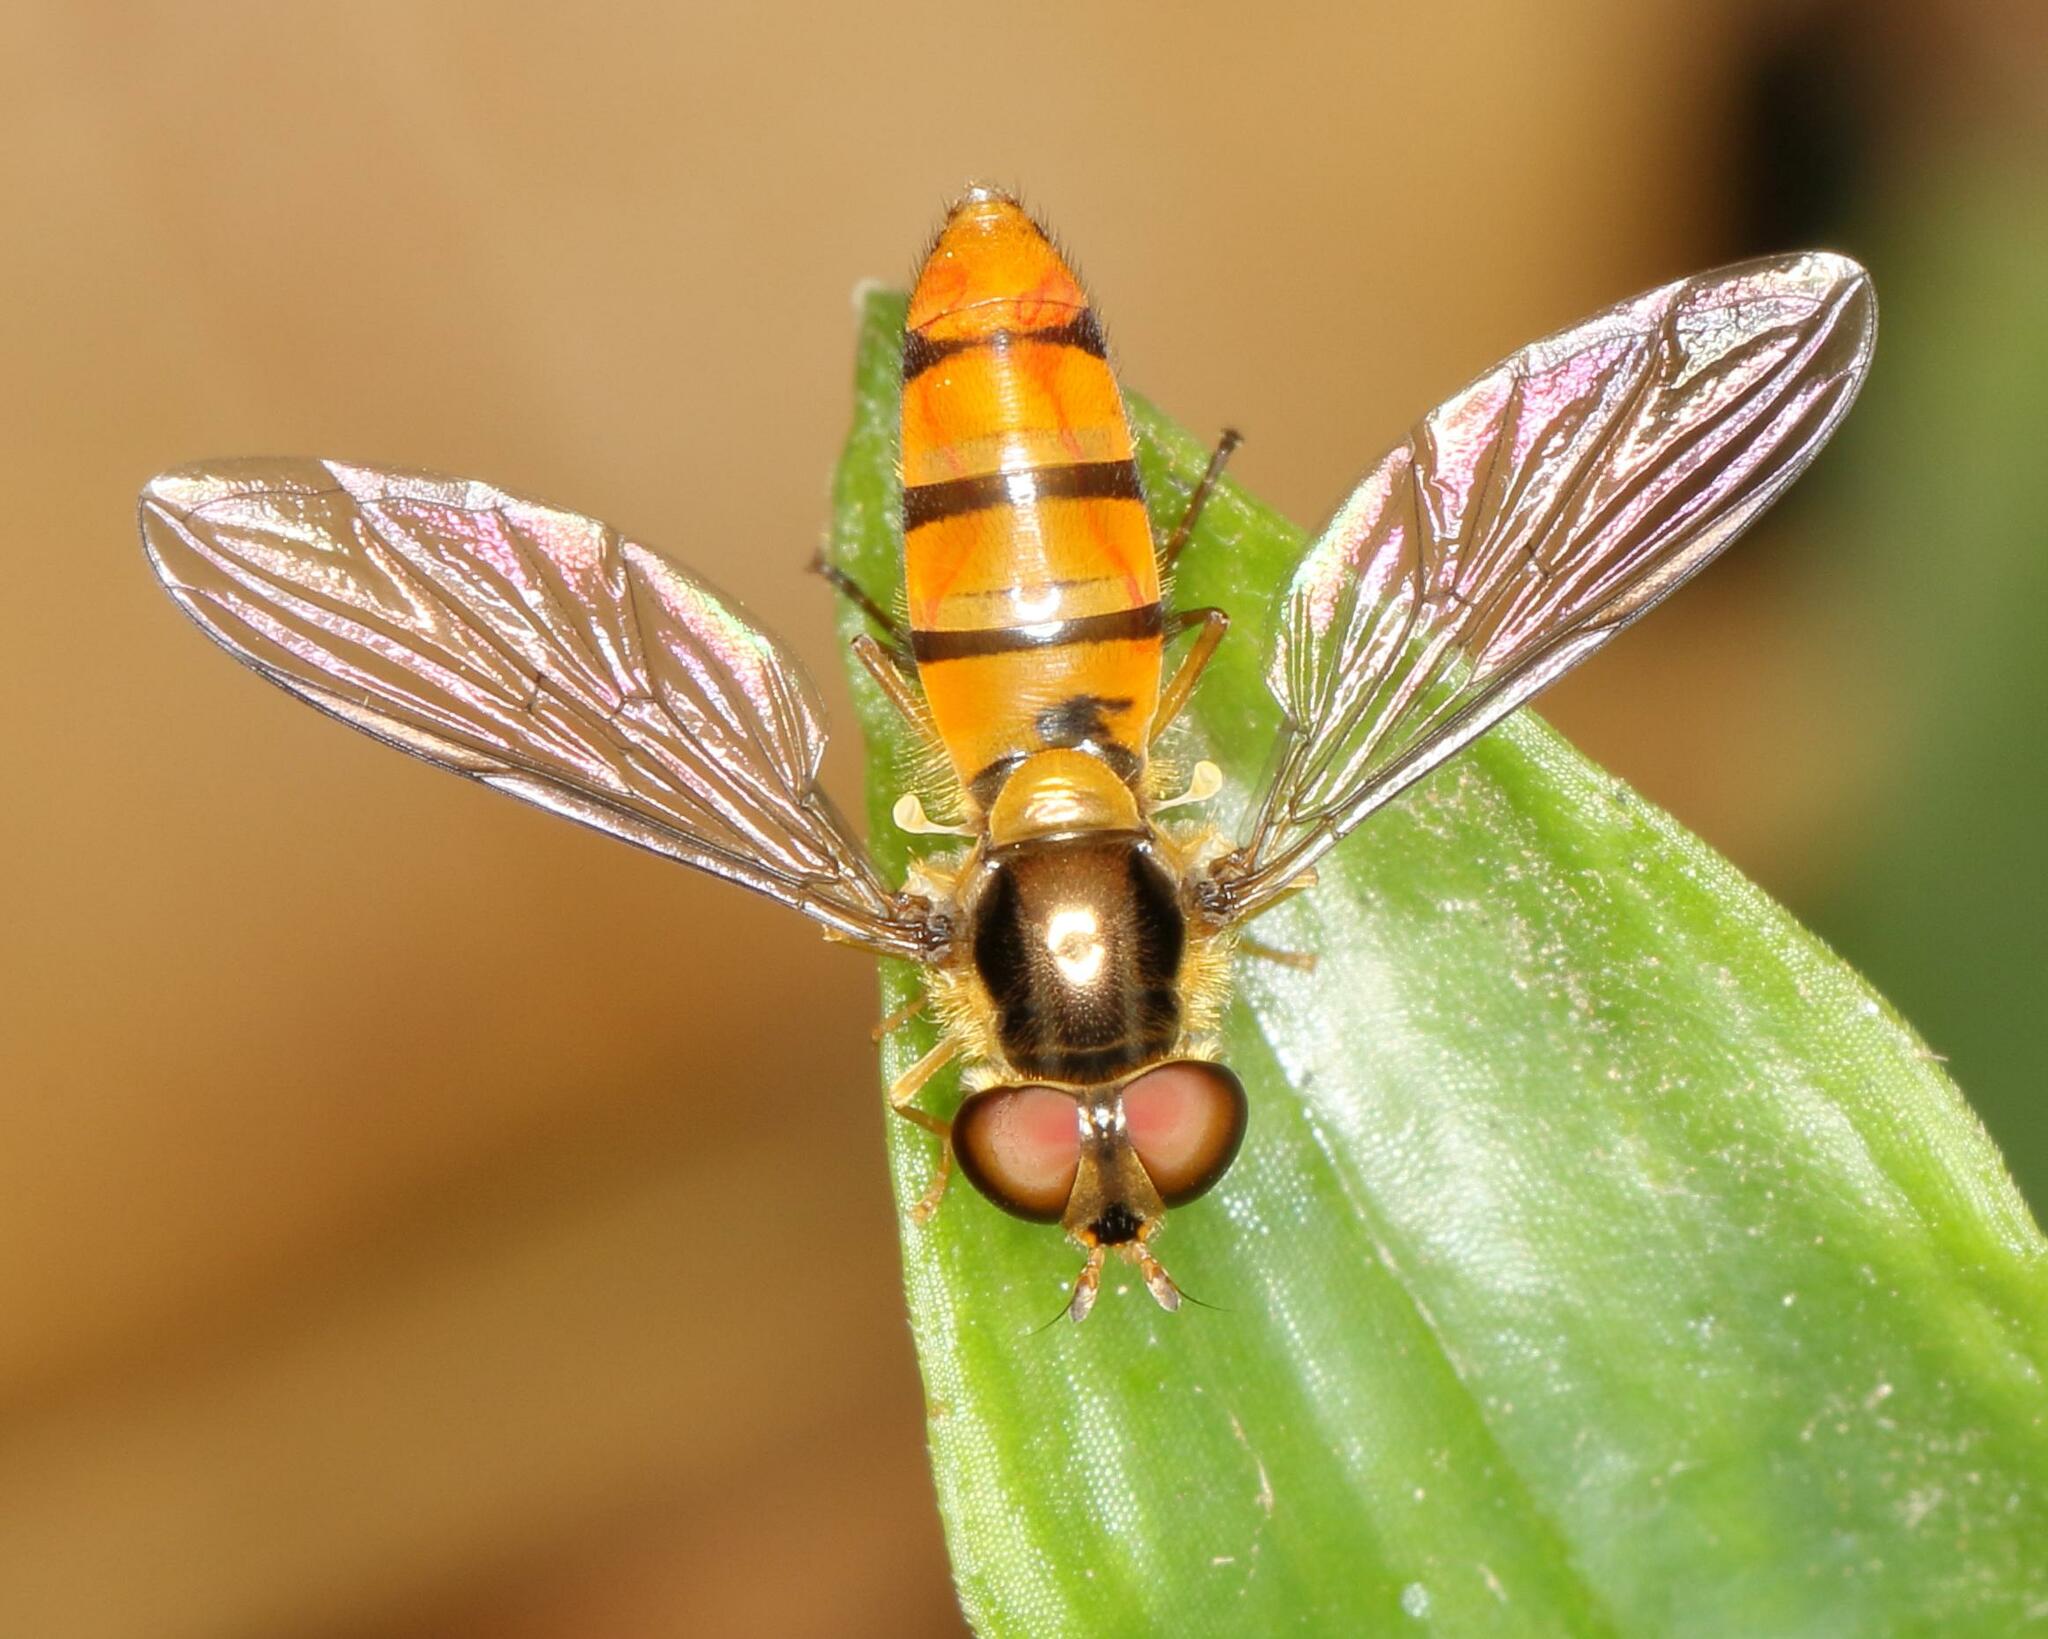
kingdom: Animalia
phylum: Arthropoda
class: Insecta
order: Diptera
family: Syrphidae
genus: Episyrphus
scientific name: Episyrphus trisectus
